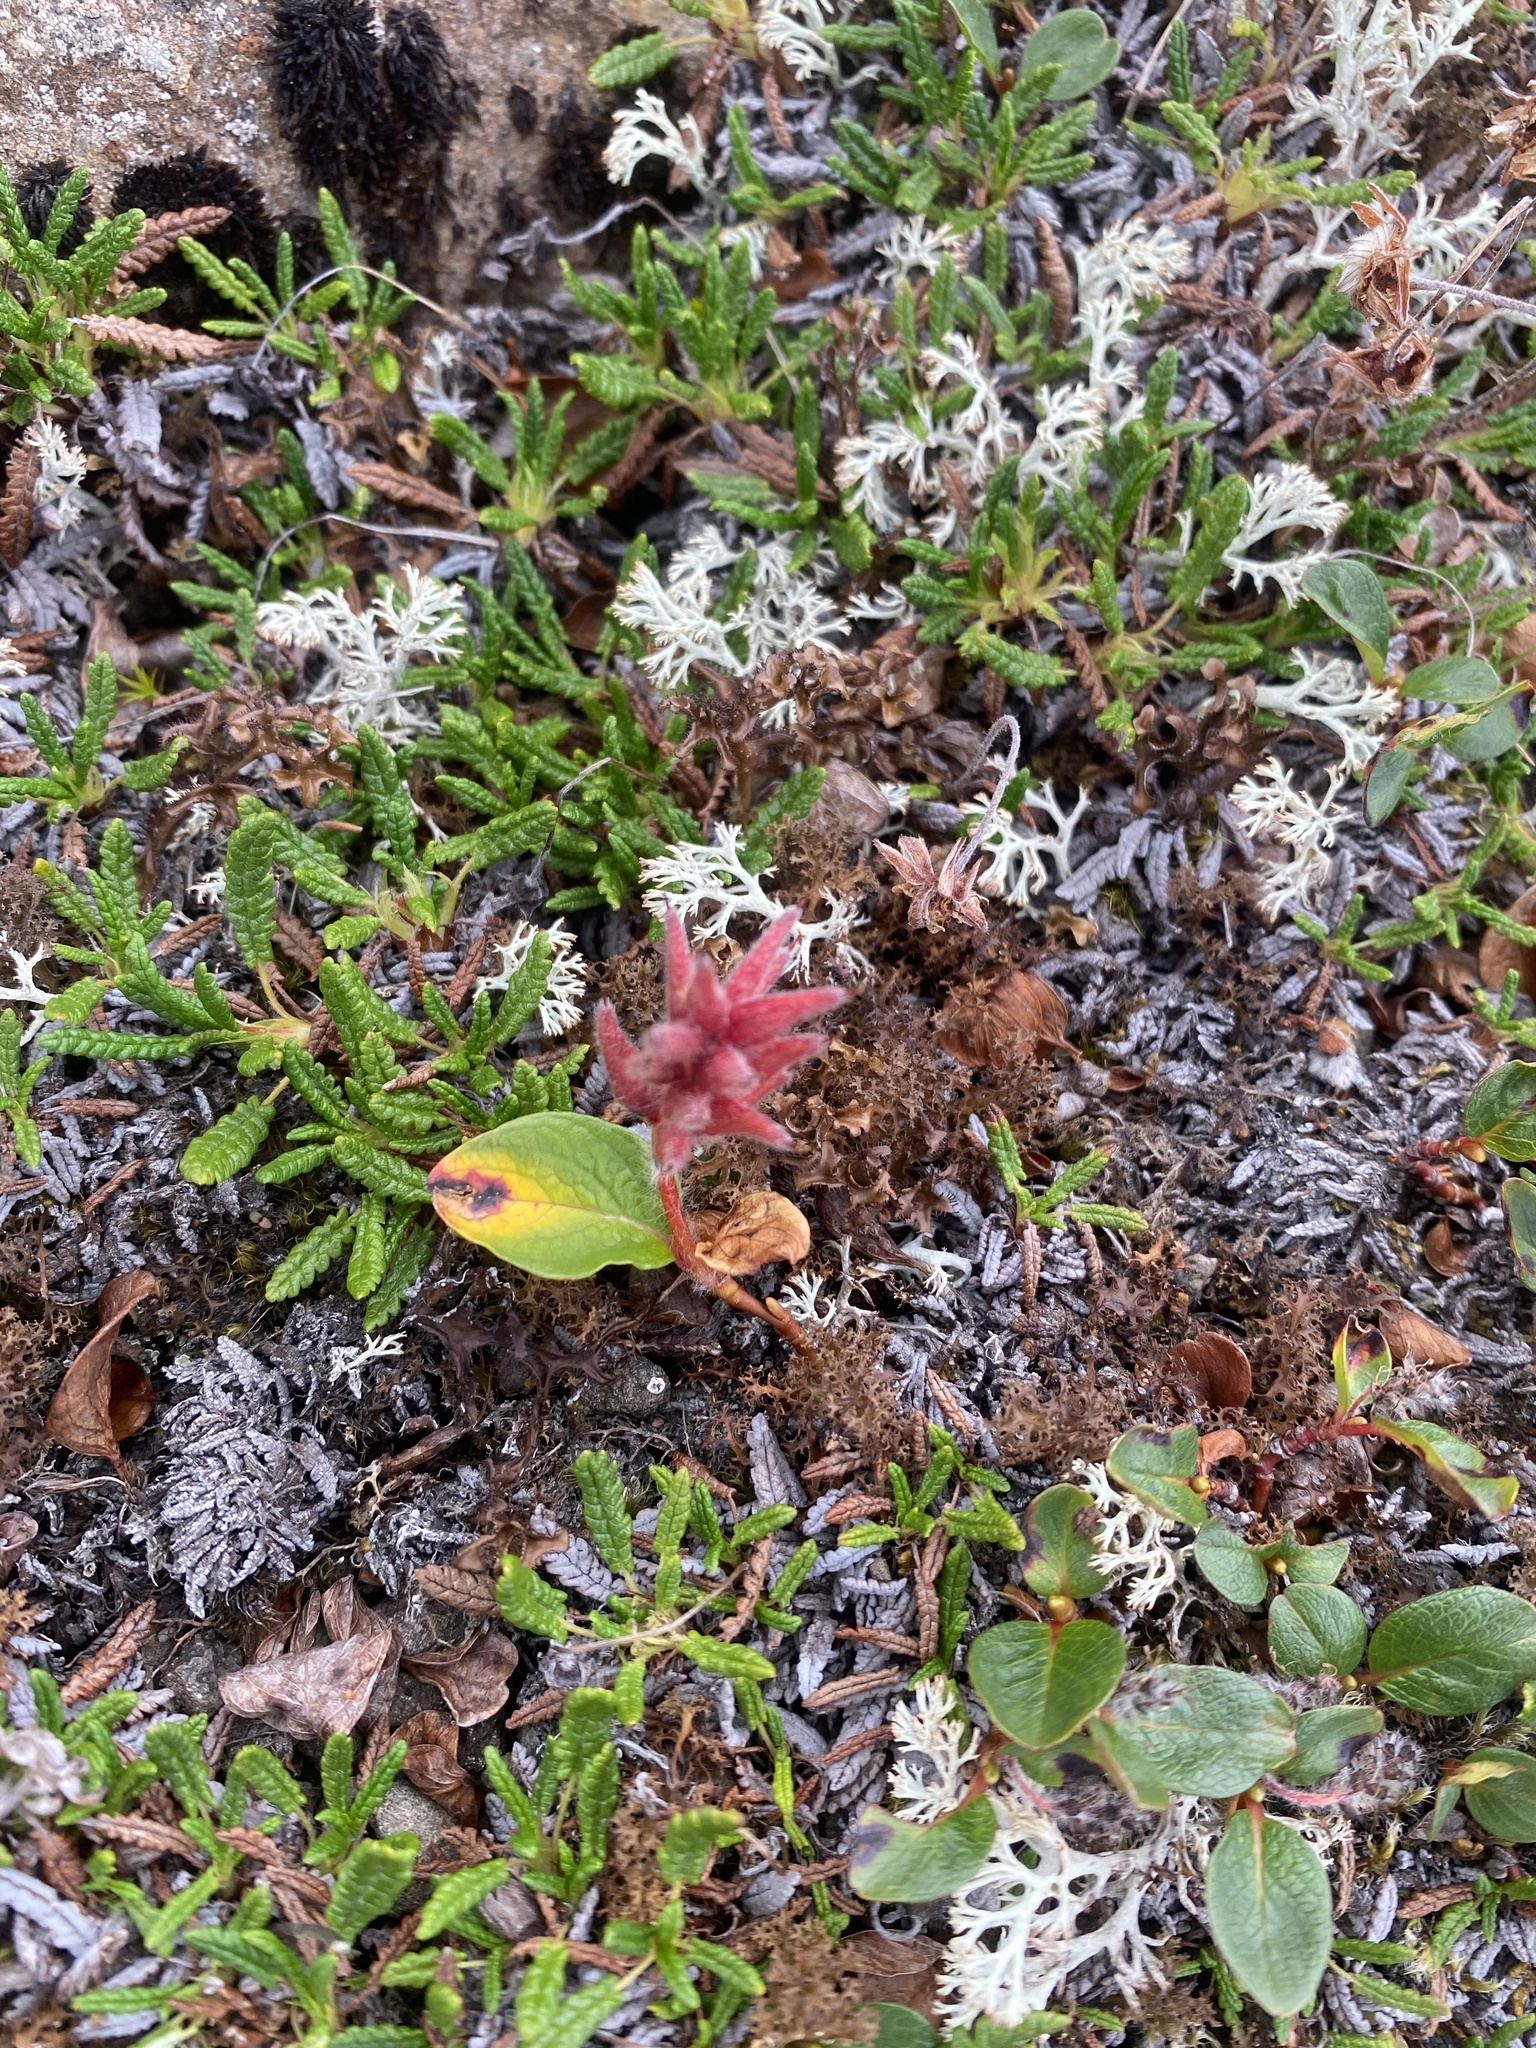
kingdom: Plantae
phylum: Tracheophyta
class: Magnoliopsida
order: Malpighiales
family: Salicaceae
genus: Salix
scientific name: Salix polaris
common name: Polar willow
